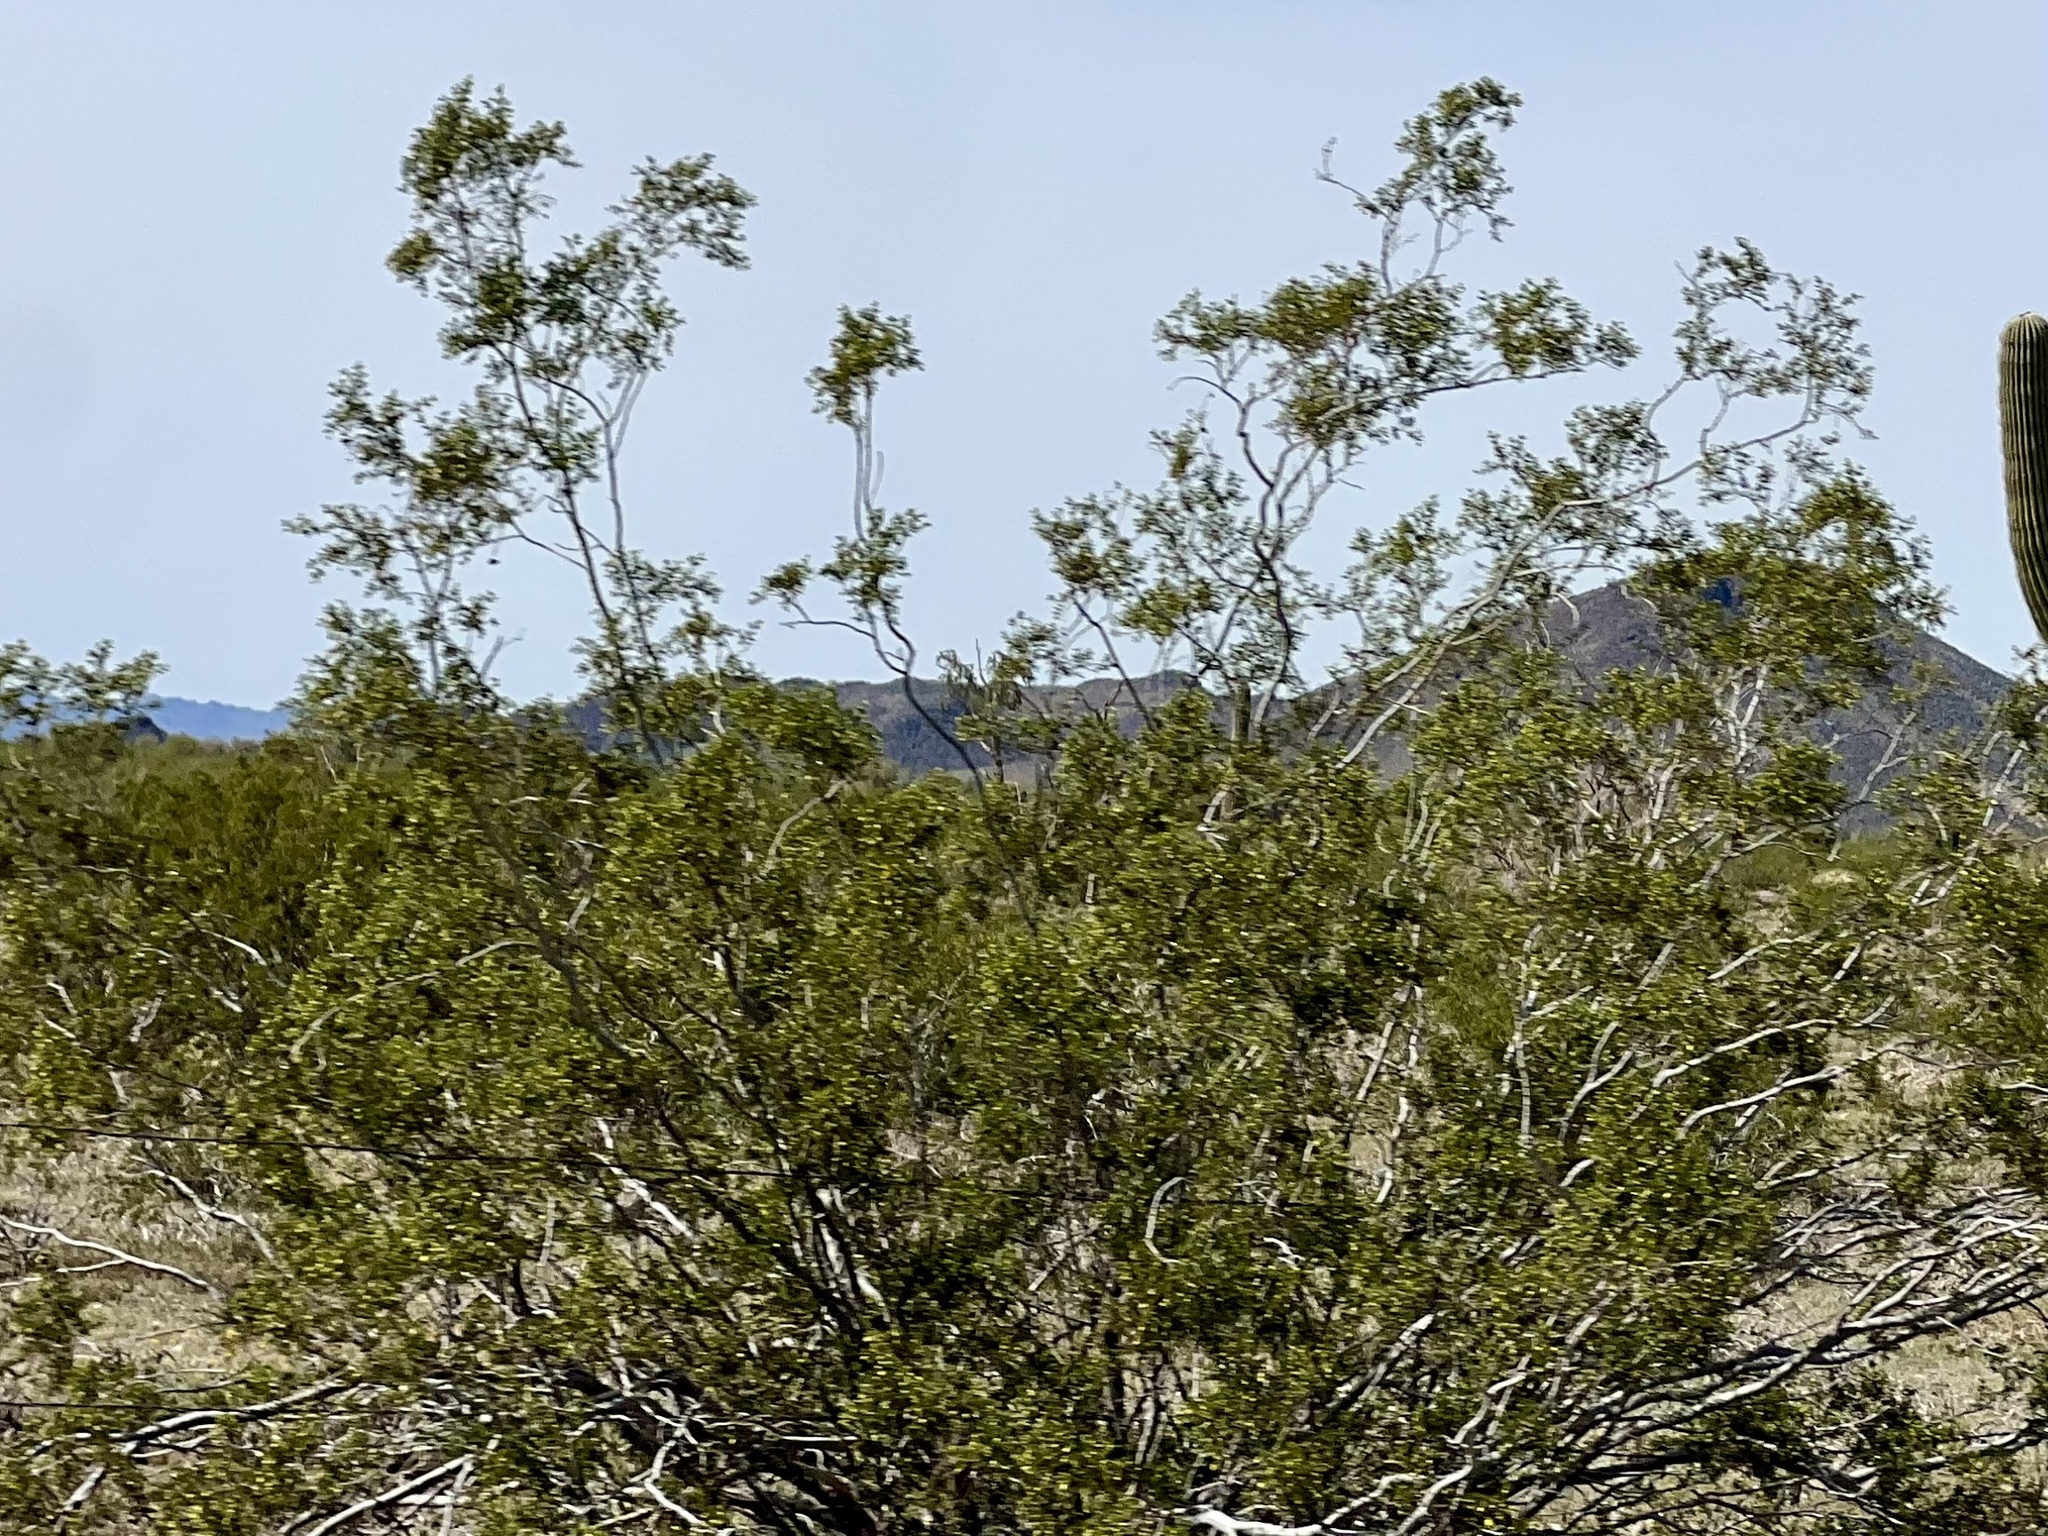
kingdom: Plantae
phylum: Tracheophyta
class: Magnoliopsida
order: Zygophyllales
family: Zygophyllaceae
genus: Larrea
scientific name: Larrea tridentata
